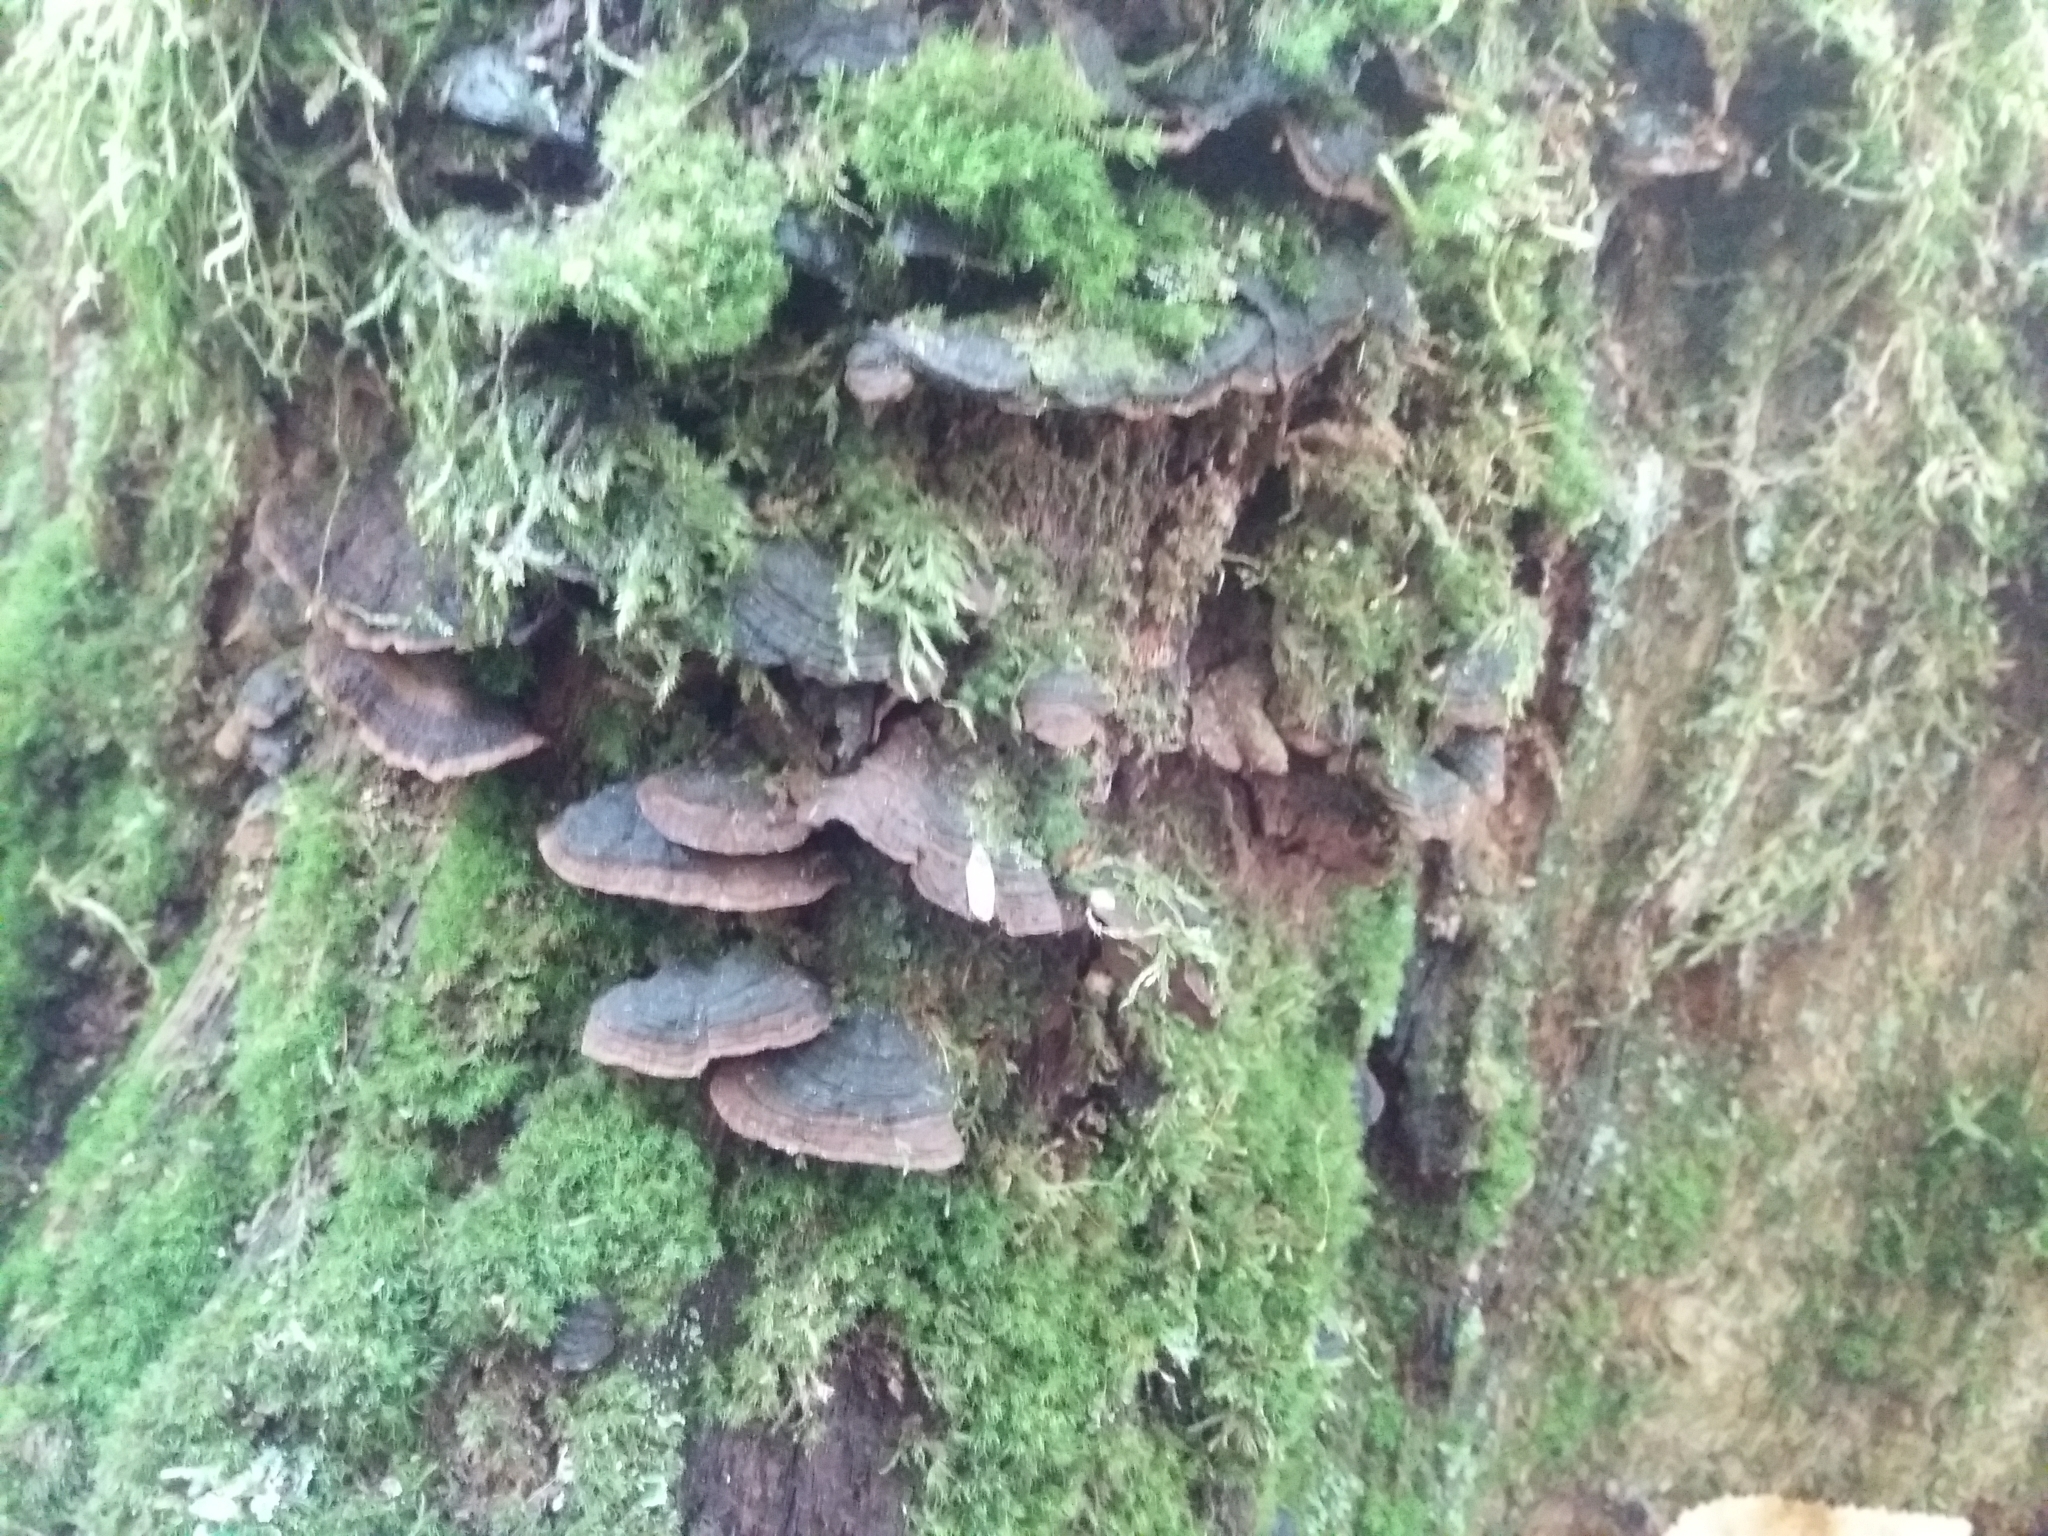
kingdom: Fungi
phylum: Basidiomycota
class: Agaricomycetes
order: Hymenochaetales
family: Hymenochaetaceae
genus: Hymenochaete
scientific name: Hymenochaete rubiginosa
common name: Oak curtain crust
